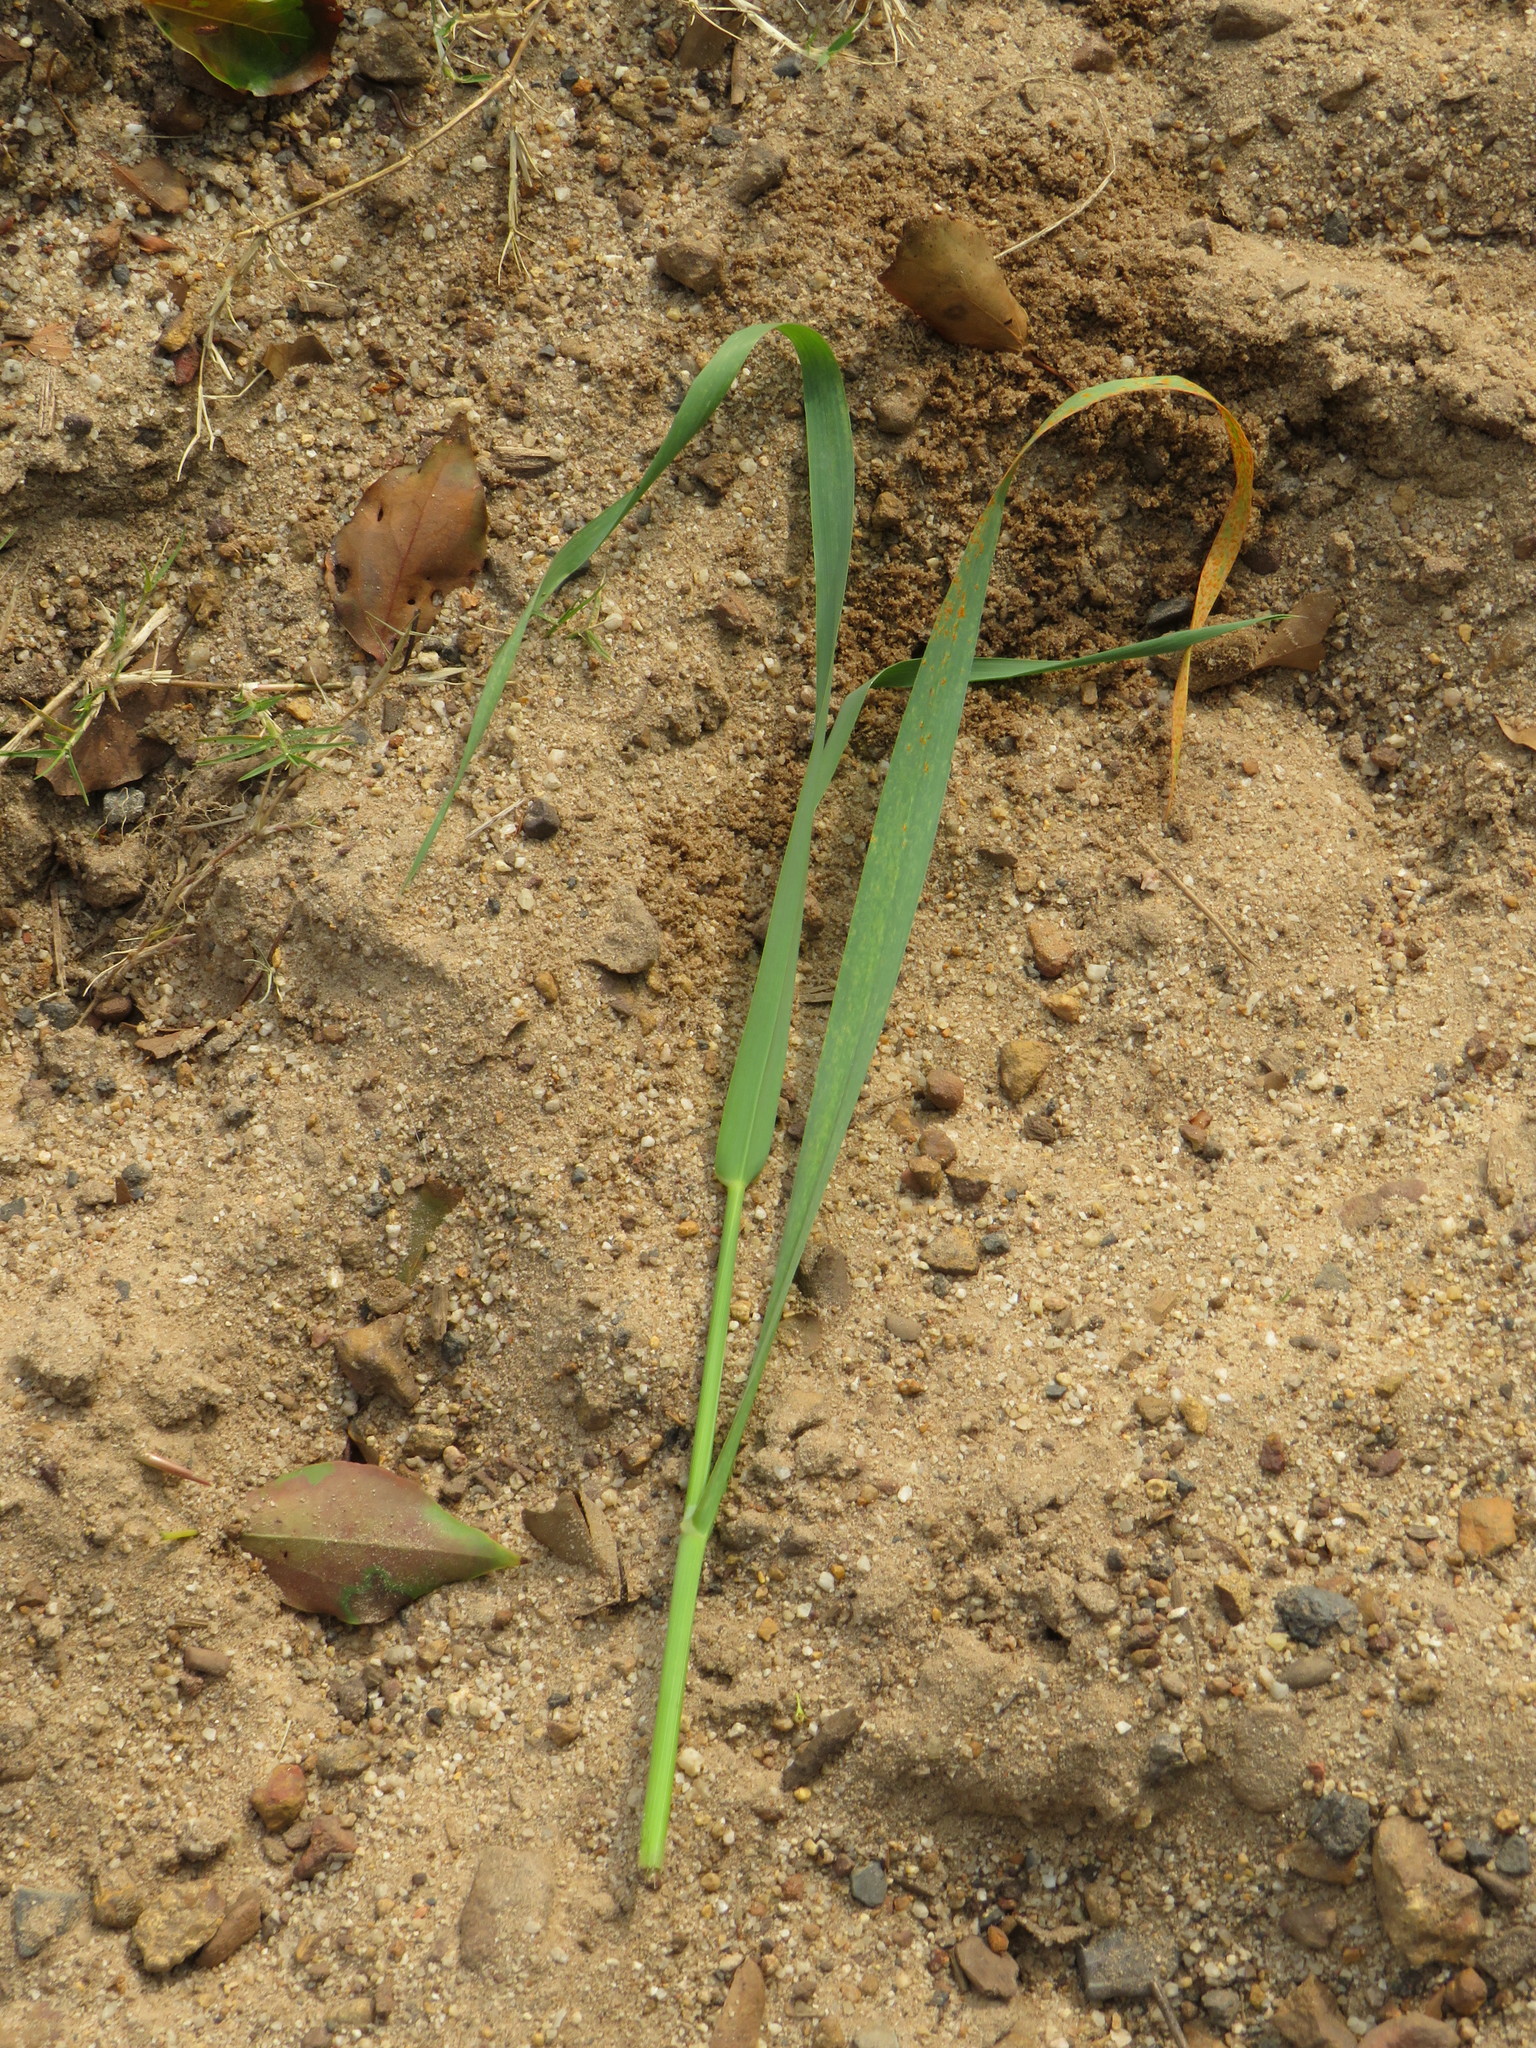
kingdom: Plantae
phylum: Tracheophyta
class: Liliopsida
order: Poales
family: Poaceae
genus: Ehrharta
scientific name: Ehrharta longiflora
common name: Longflowered veldtgrass
